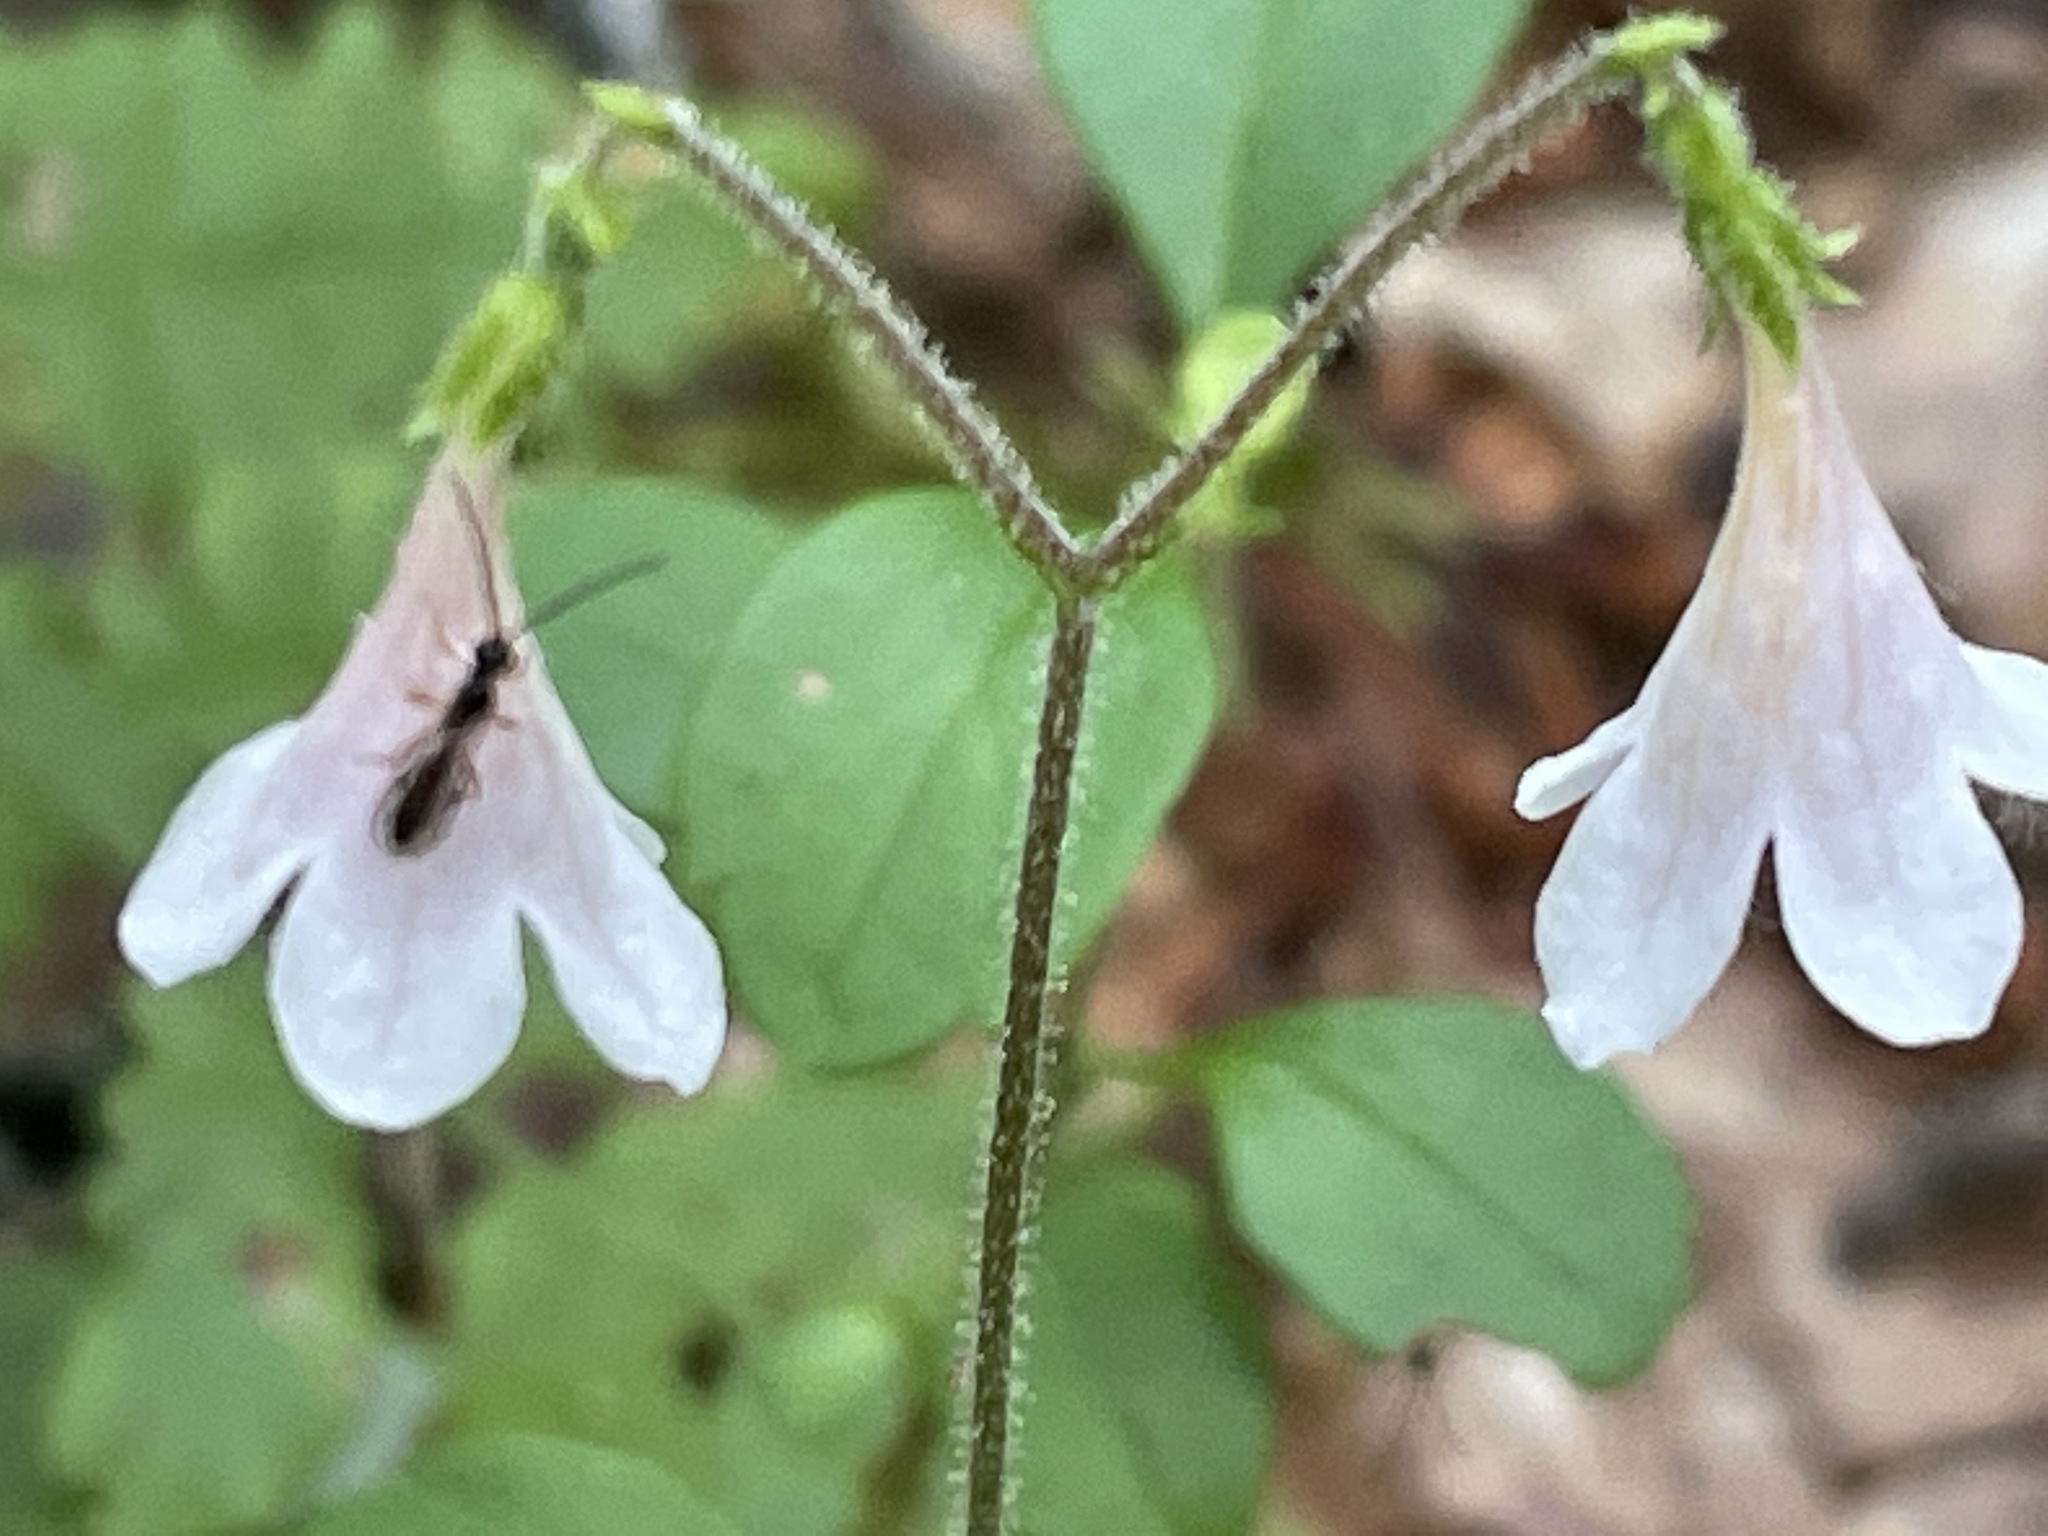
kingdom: Plantae
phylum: Tracheophyta
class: Magnoliopsida
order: Dipsacales
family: Caprifoliaceae
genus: Linnaea
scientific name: Linnaea borealis
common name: Twinflower
